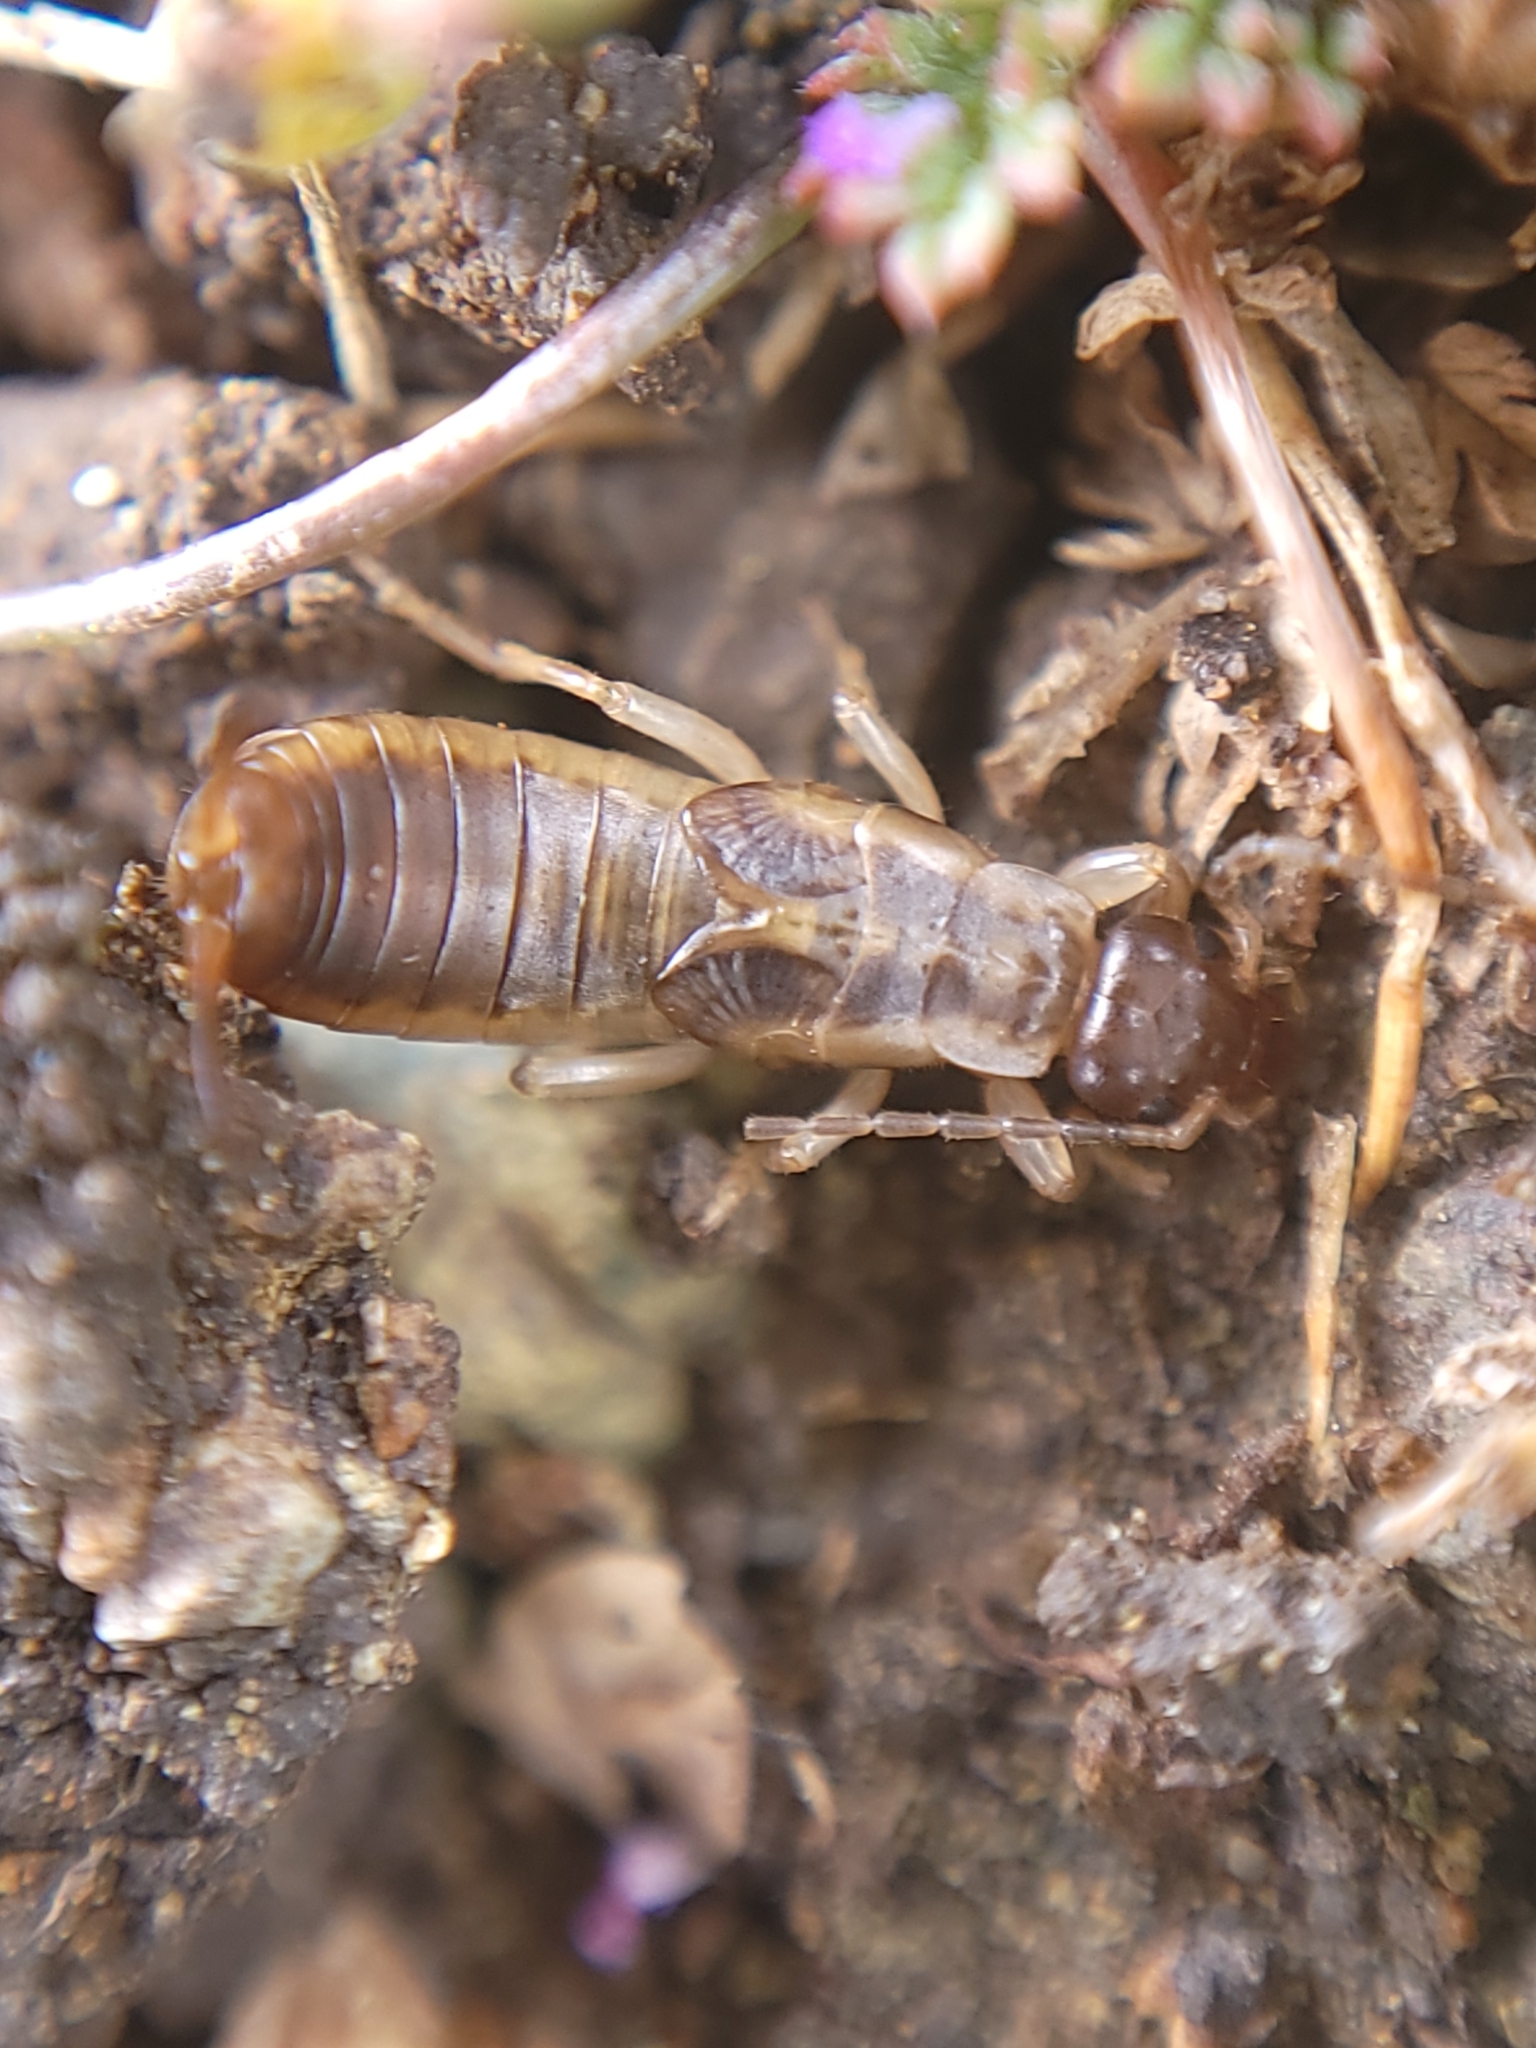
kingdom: Animalia
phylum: Arthropoda
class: Insecta
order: Dermaptera
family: Forficulidae
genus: Forficula
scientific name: Forficula dentata
